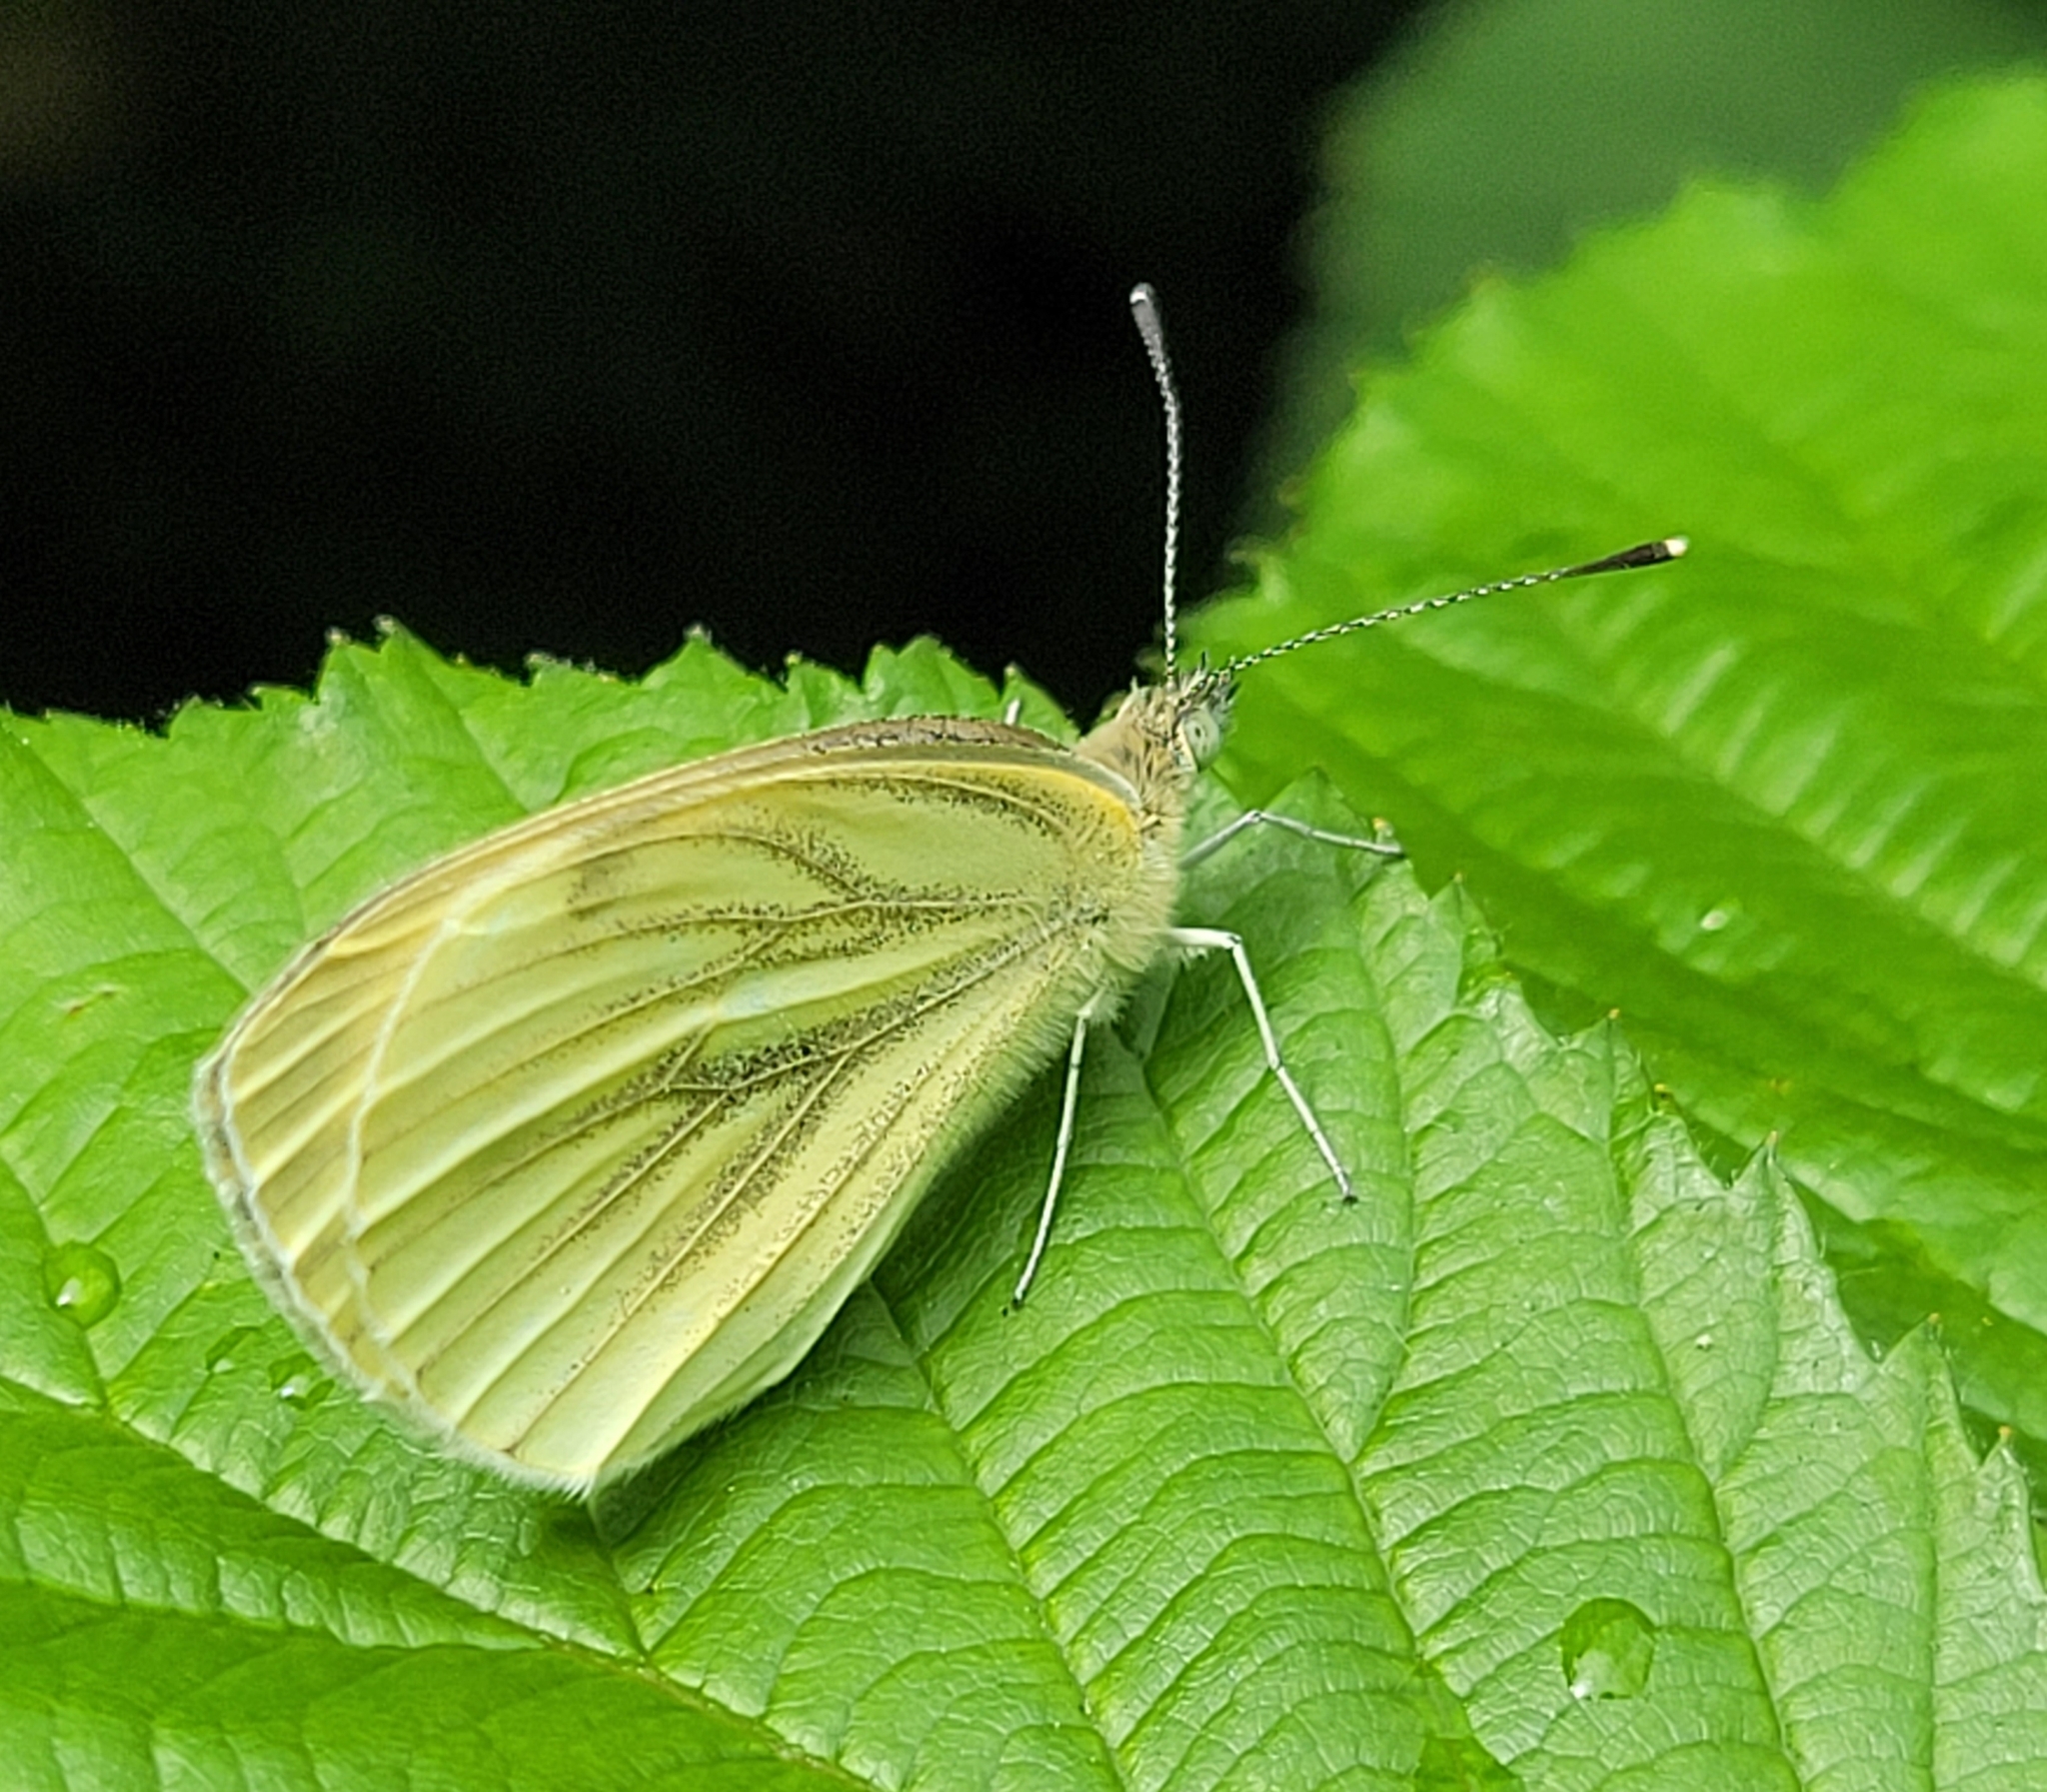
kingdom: Animalia
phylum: Arthropoda
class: Insecta
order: Lepidoptera
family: Pieridae
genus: Pieris
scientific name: Pieris napi
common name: Green-veined white
